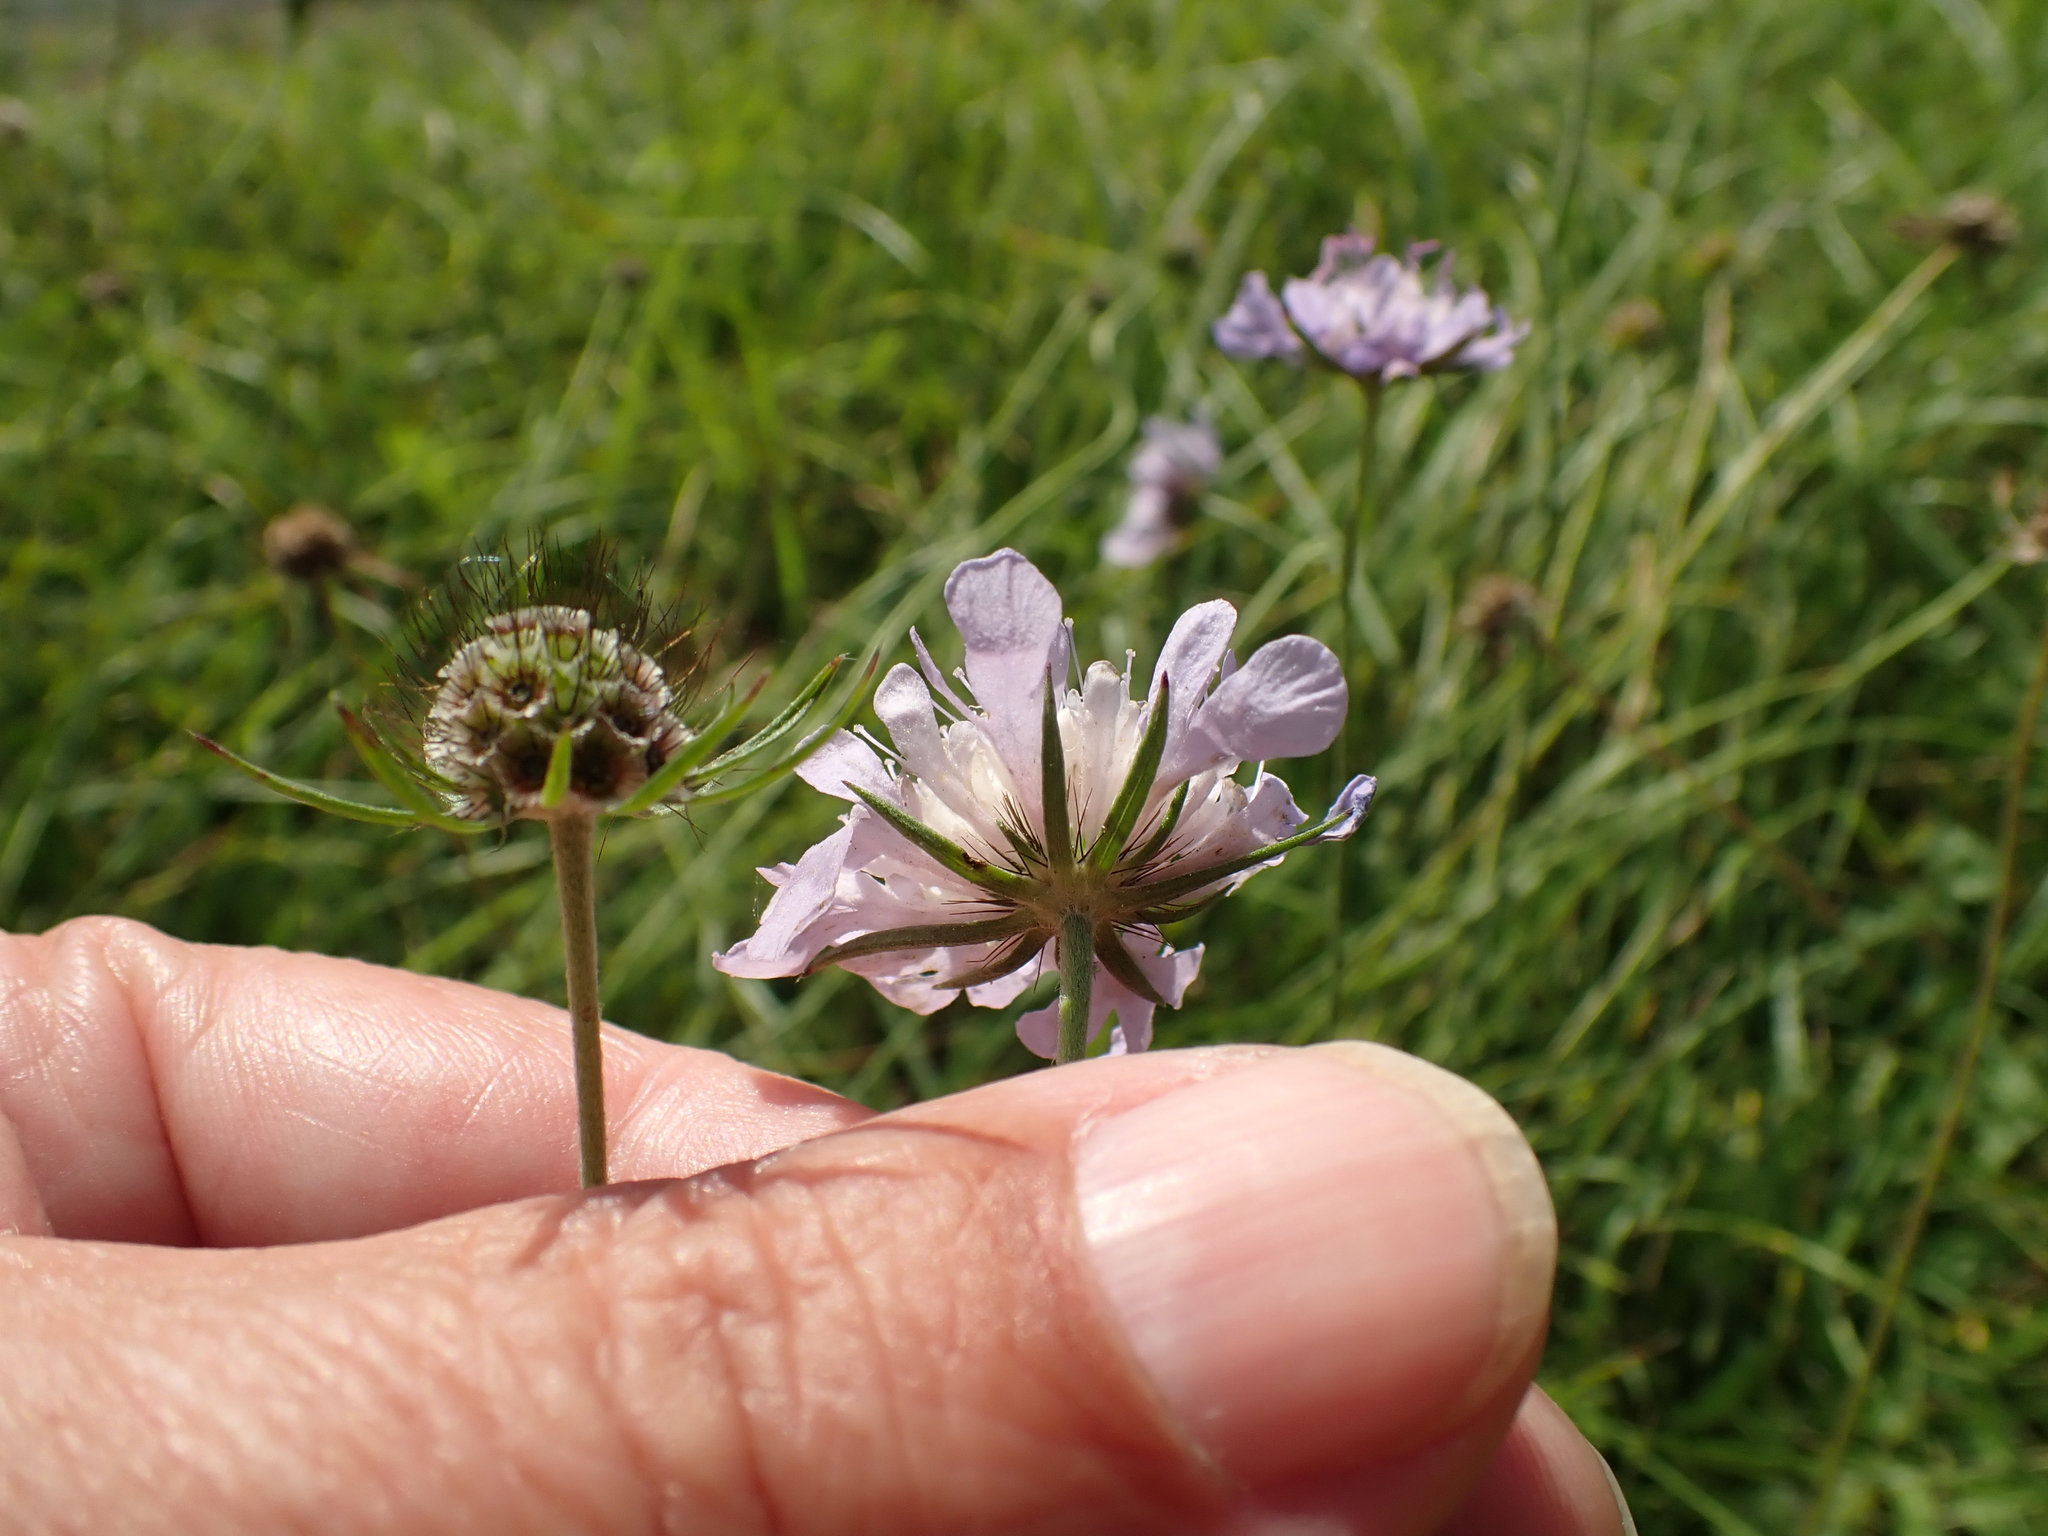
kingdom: Plantae
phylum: Tracheophyta
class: Magnoliopsida
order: Dipsacales
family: Caprifoliaceae
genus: Scabiosa
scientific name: Scabiosa columbaria
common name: Small scabious
